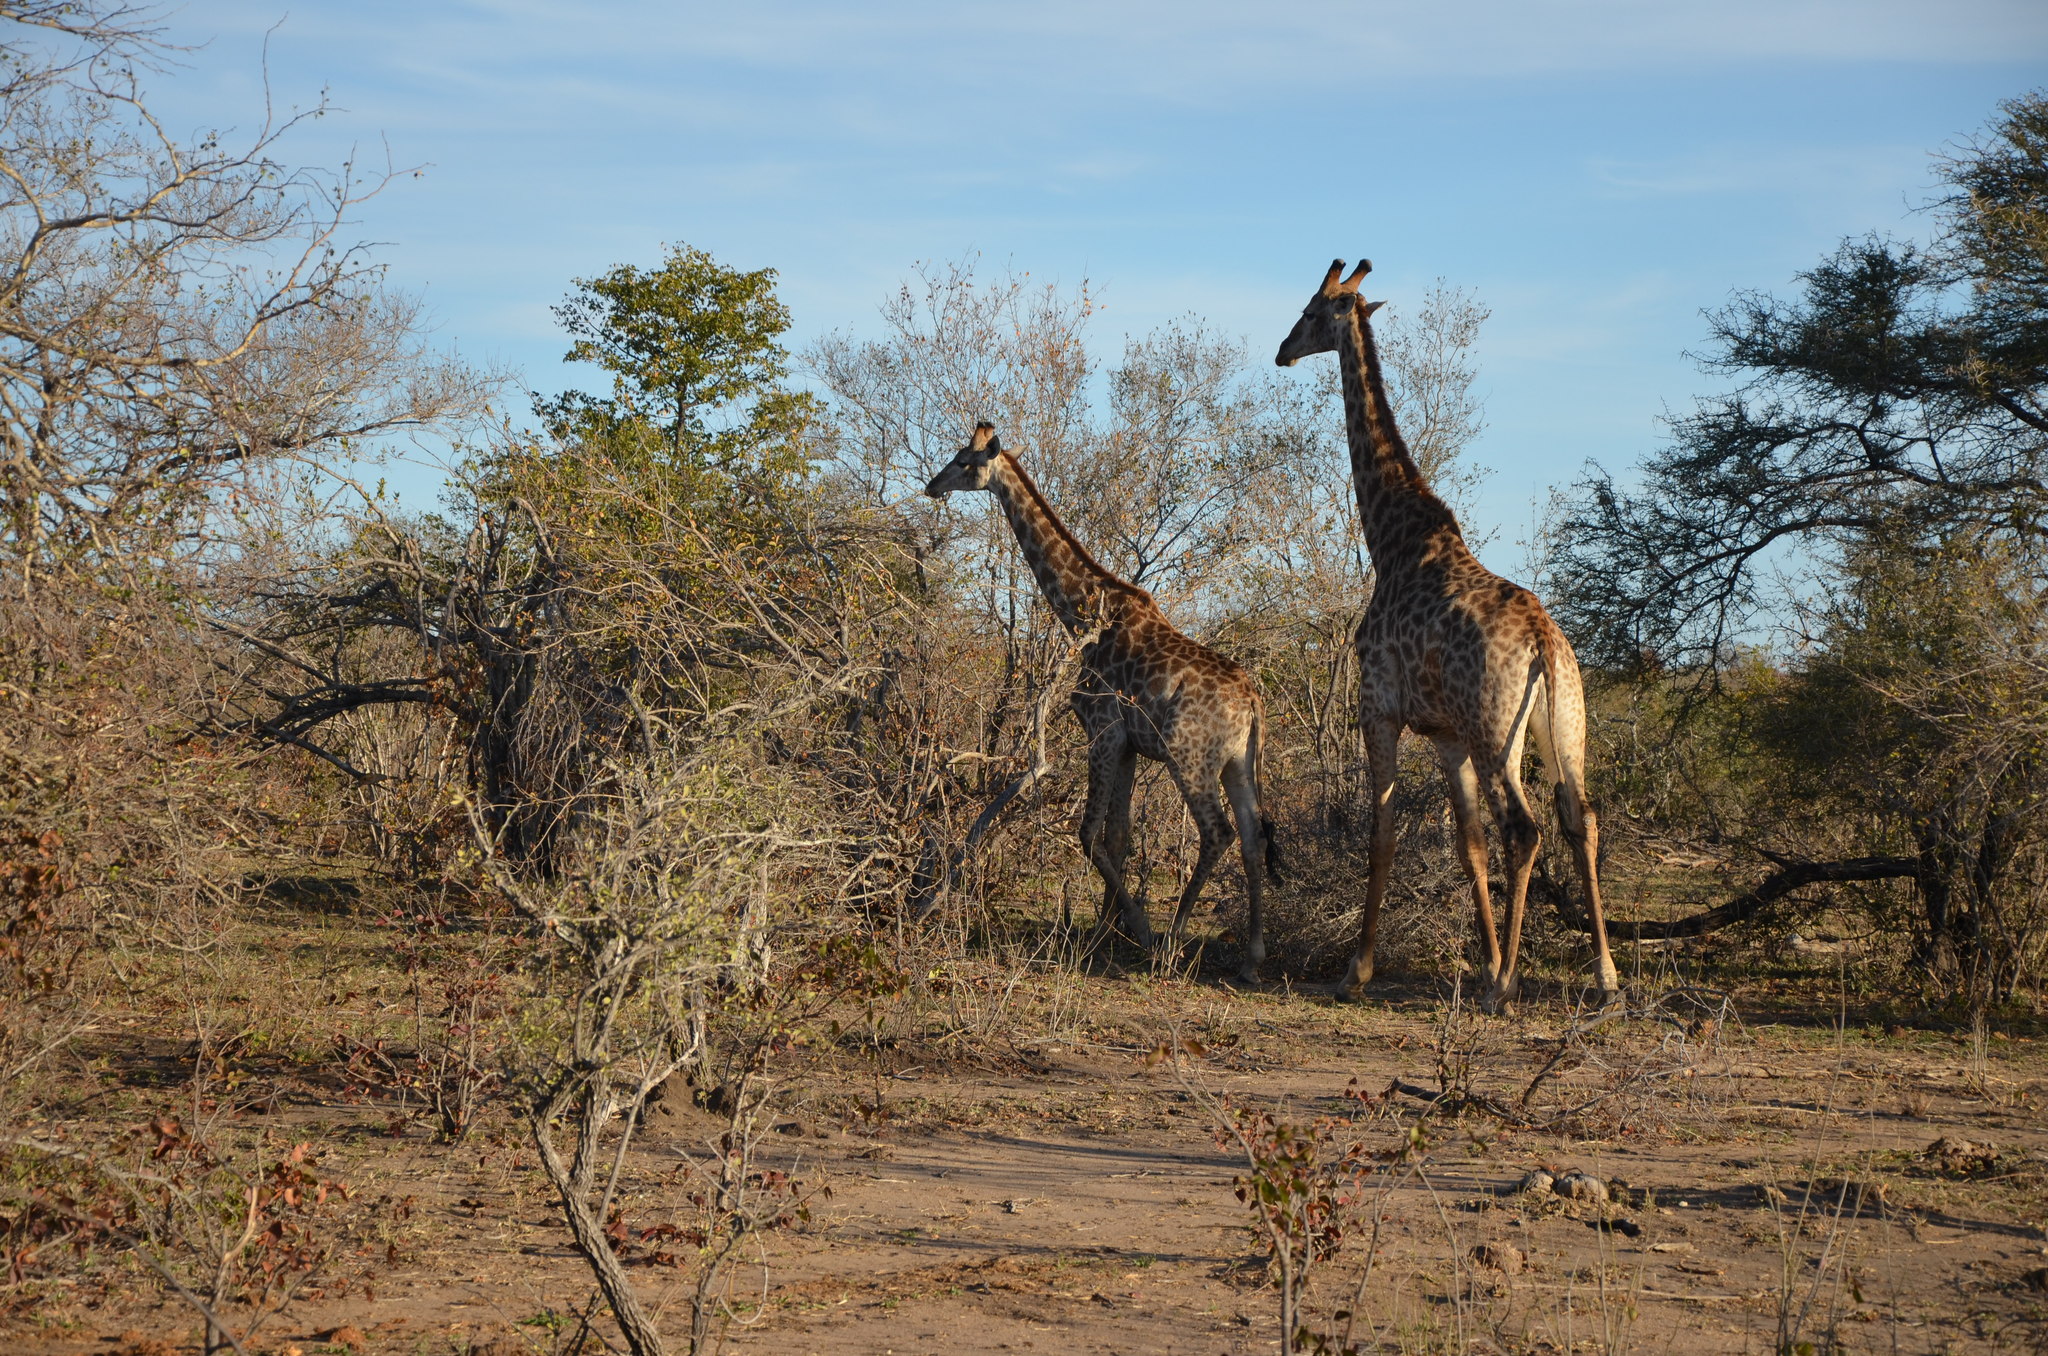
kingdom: Animalia
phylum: Chordata
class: Mammalia
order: Artiodactyla
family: Giraffidae
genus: Giraffa
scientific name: Giraffa giraffa
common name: Southern giraffe
